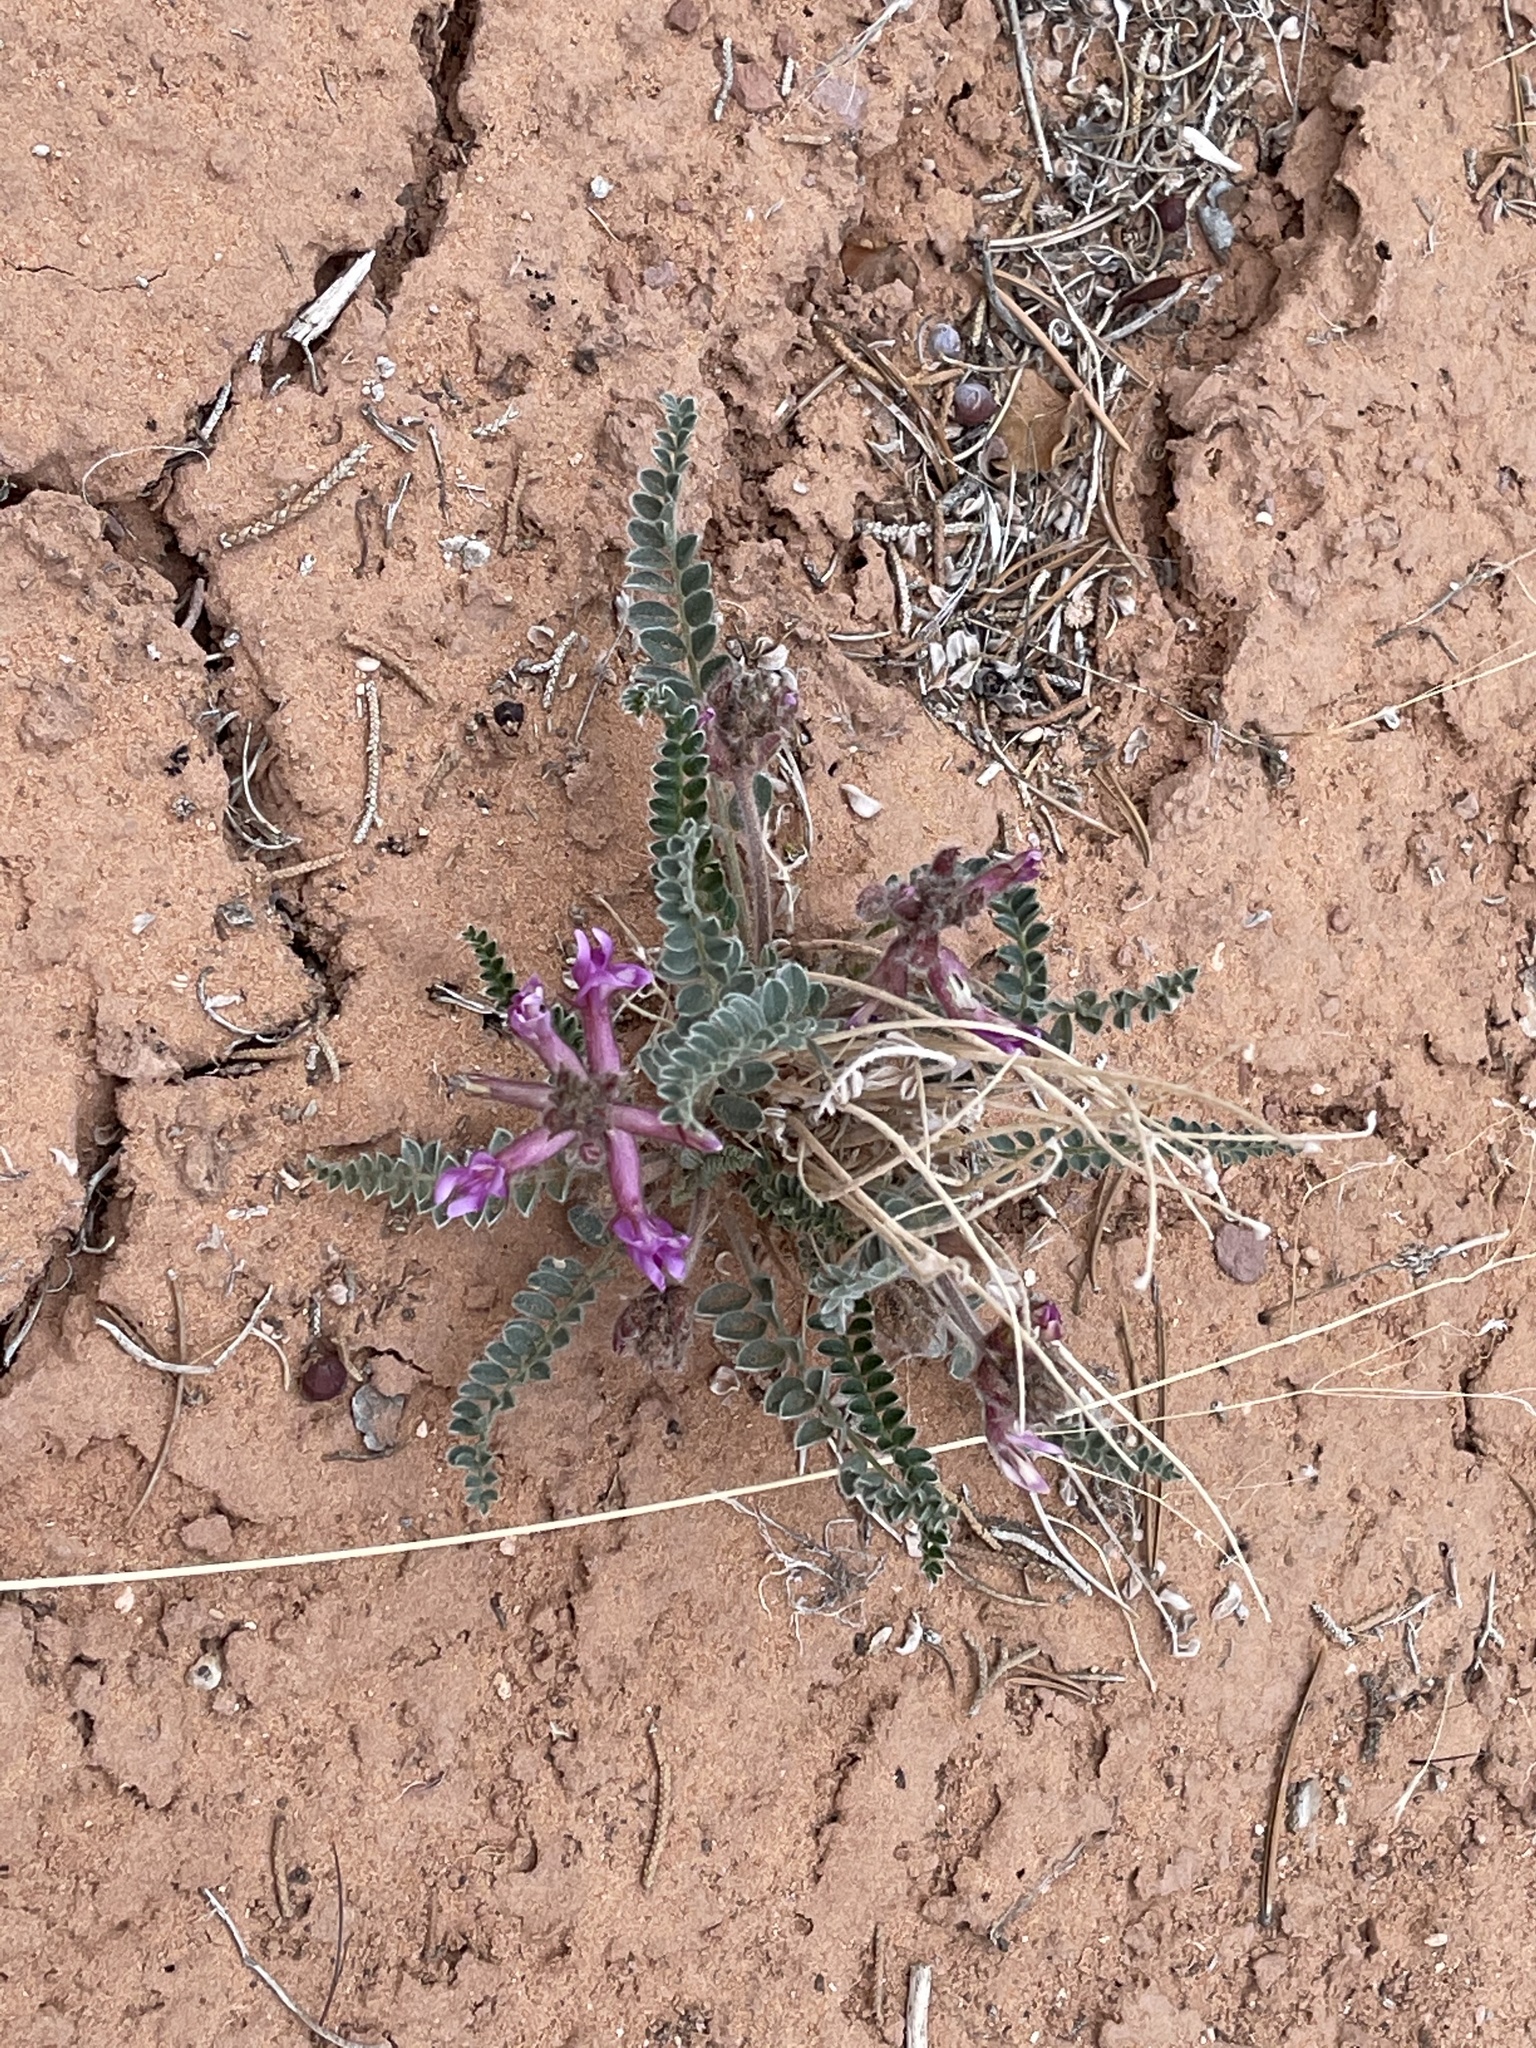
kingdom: Plantae
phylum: Tracheophyta
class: Magnoliopsida
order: Fabales
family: Fabaceae
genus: Astragalus
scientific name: Astragalus mollissimus
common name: Woolly locoweed
